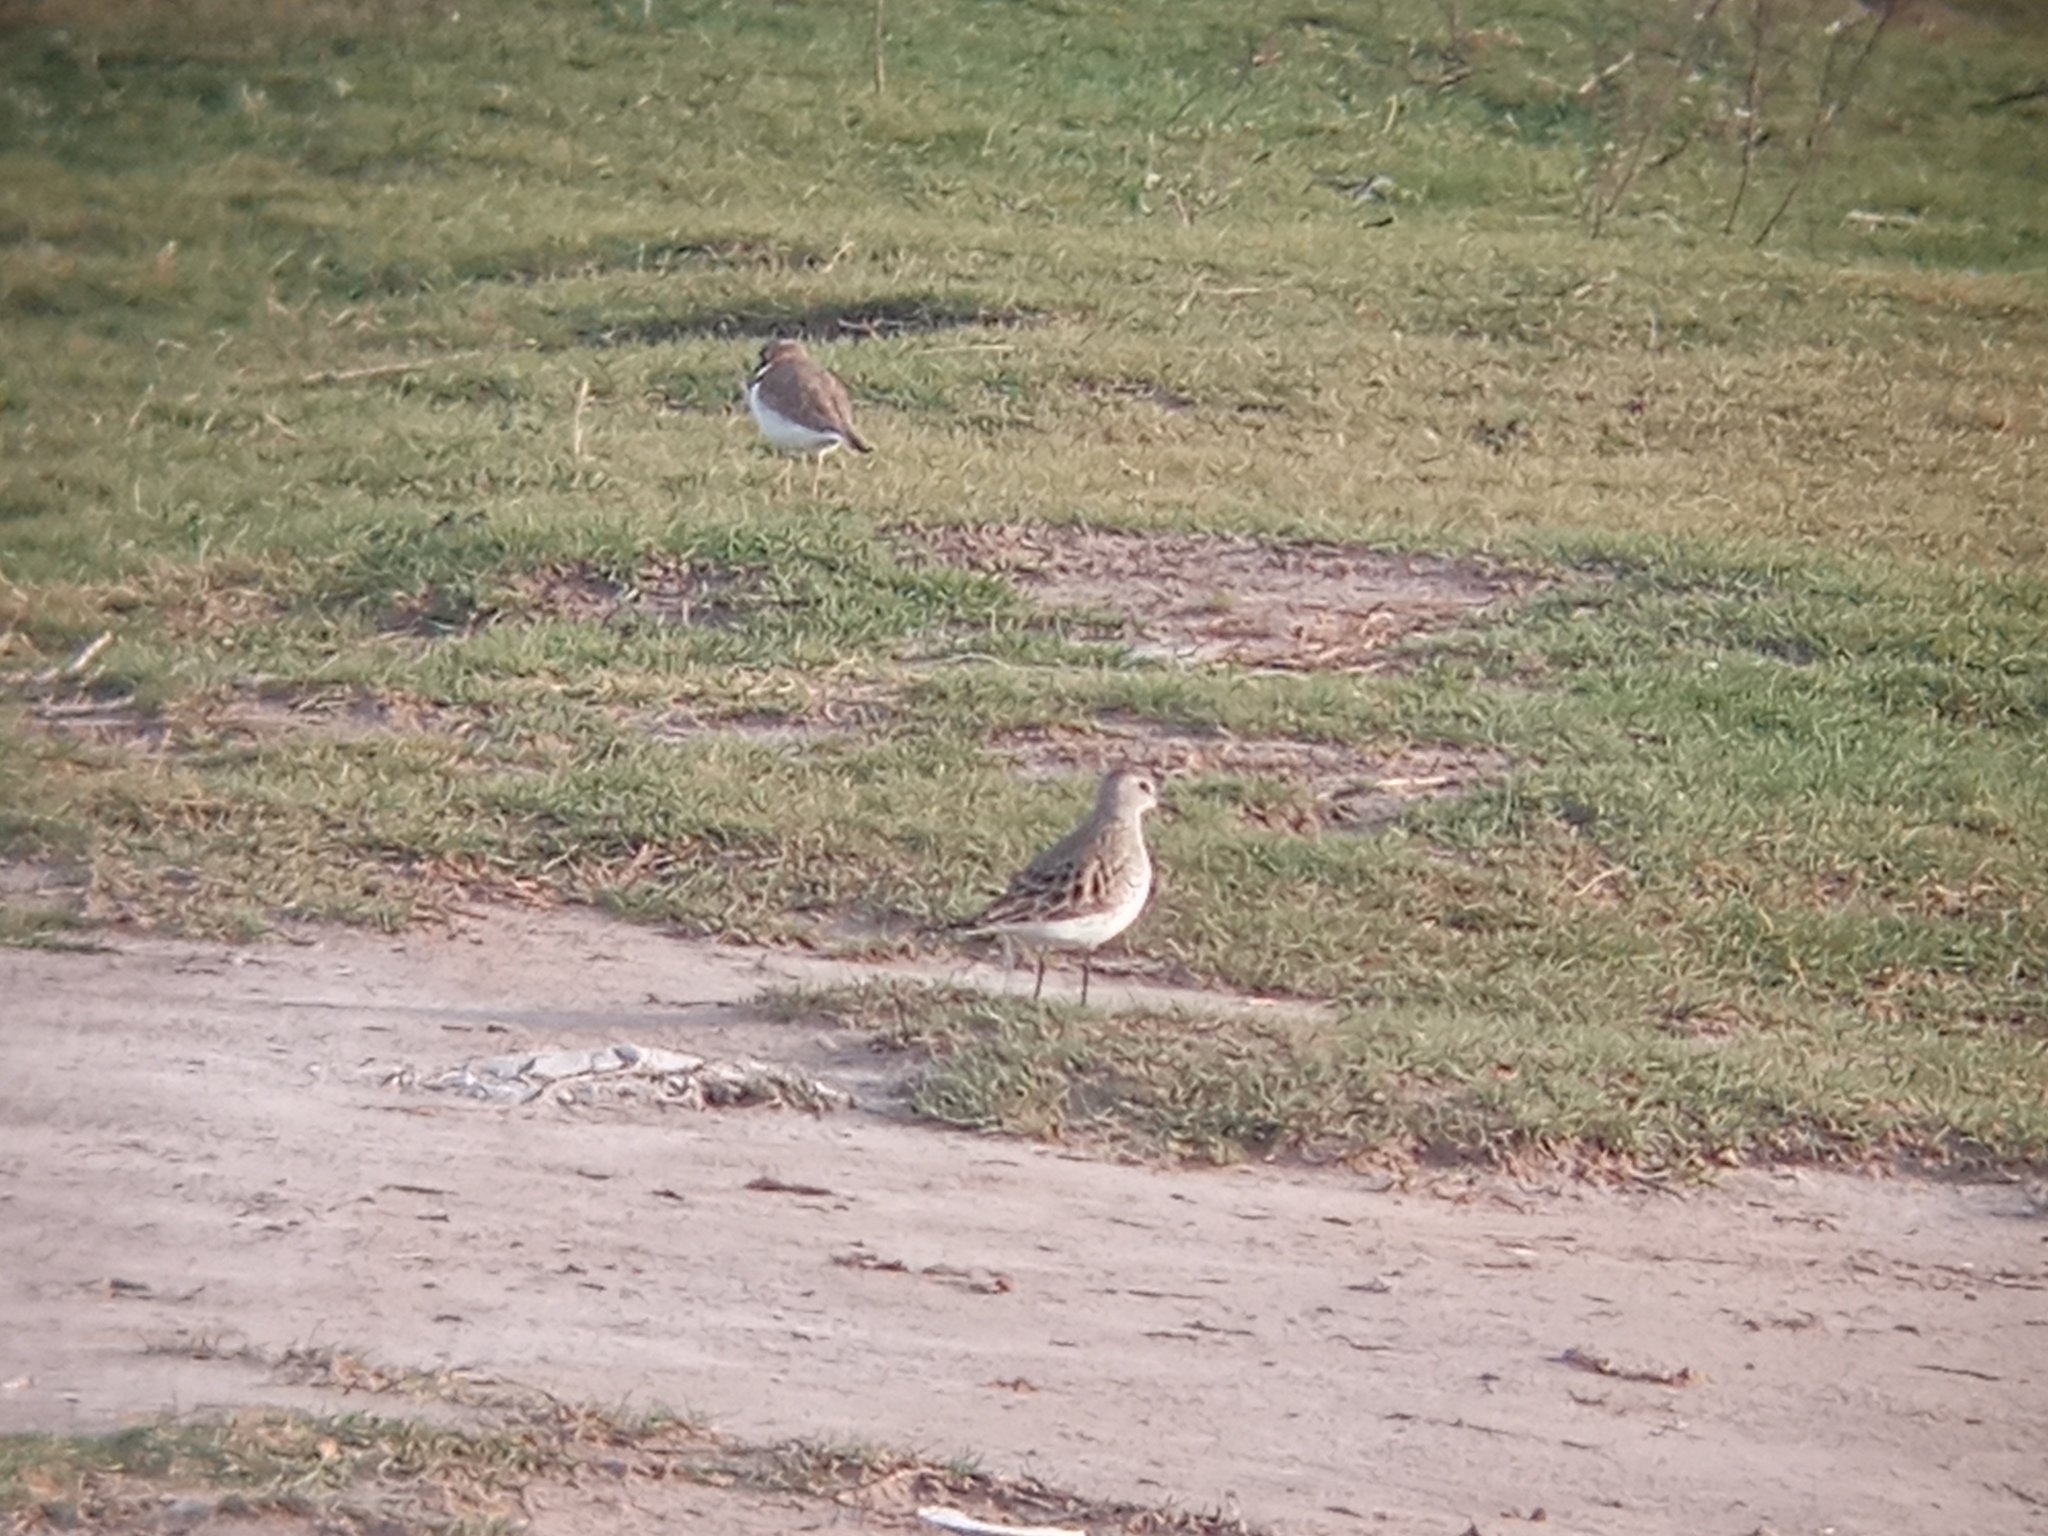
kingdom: Animalia
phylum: Chordata
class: Aves
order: Charadriiformes
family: Scolopacidae
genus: Calidris
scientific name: Calidris melanotos
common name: Pectoral sandpiper
